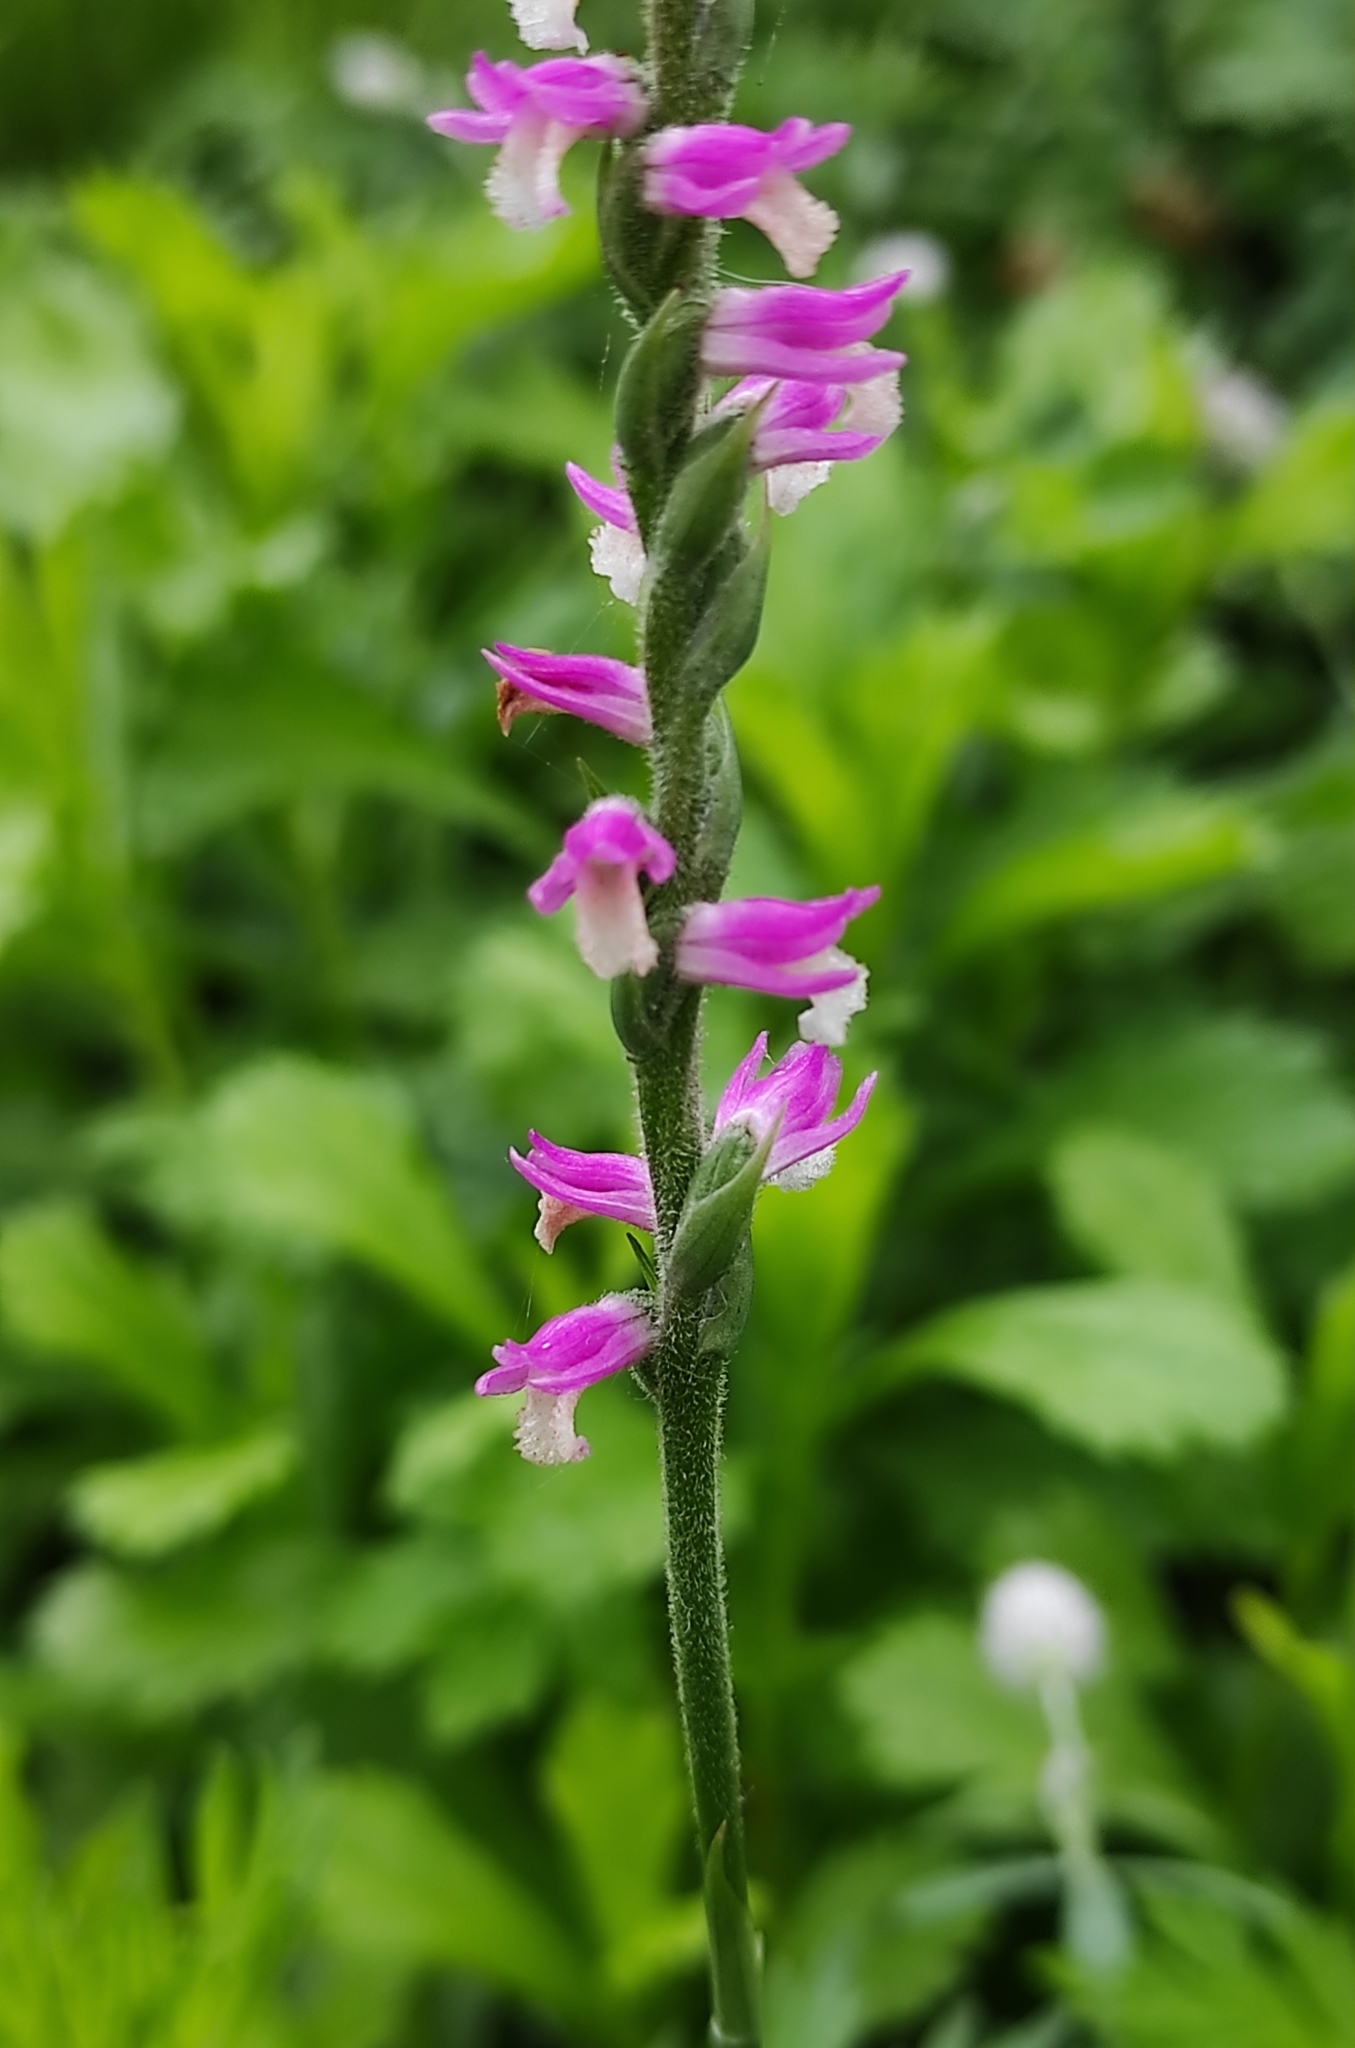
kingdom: Plantae
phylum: Tracheophyta
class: Liliopsida
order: Asparagales
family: Orchidaceae
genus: Spiranthes
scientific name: Spiranthes australis
